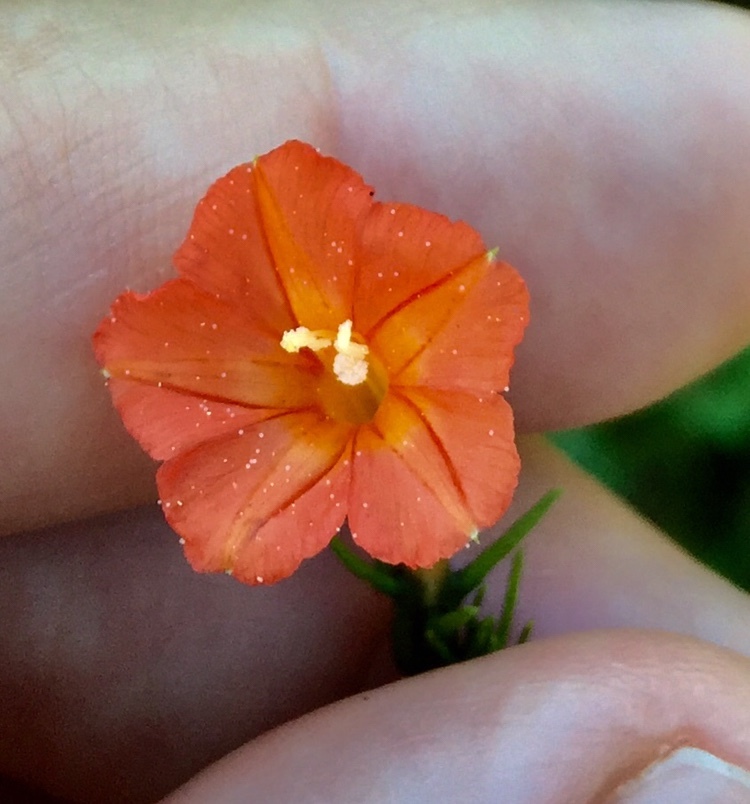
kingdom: Plantae
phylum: Tracheophyta
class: Magnoliopsida
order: Solanales
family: Convolvulaceae
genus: Ipomoea
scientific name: Ipomoea hederifolia
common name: Ivy-leaf morning-glory
